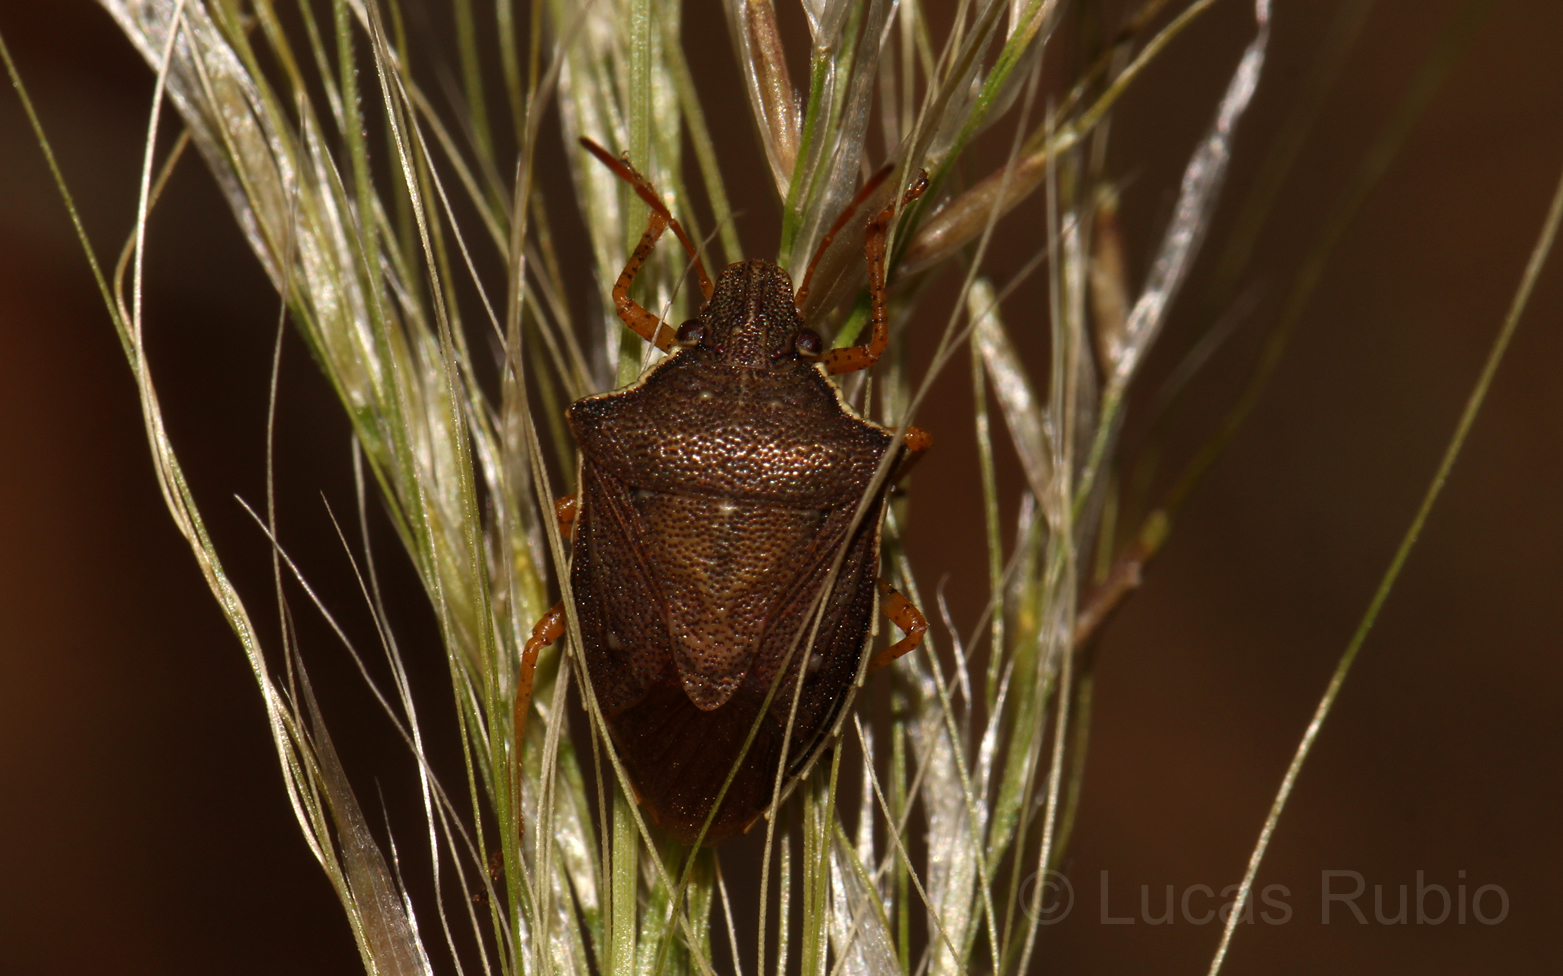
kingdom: Animalia
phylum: Arthropoda
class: Insecta
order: Hemiptera
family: Pentatomidae
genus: Mormidea
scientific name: Mormidea
